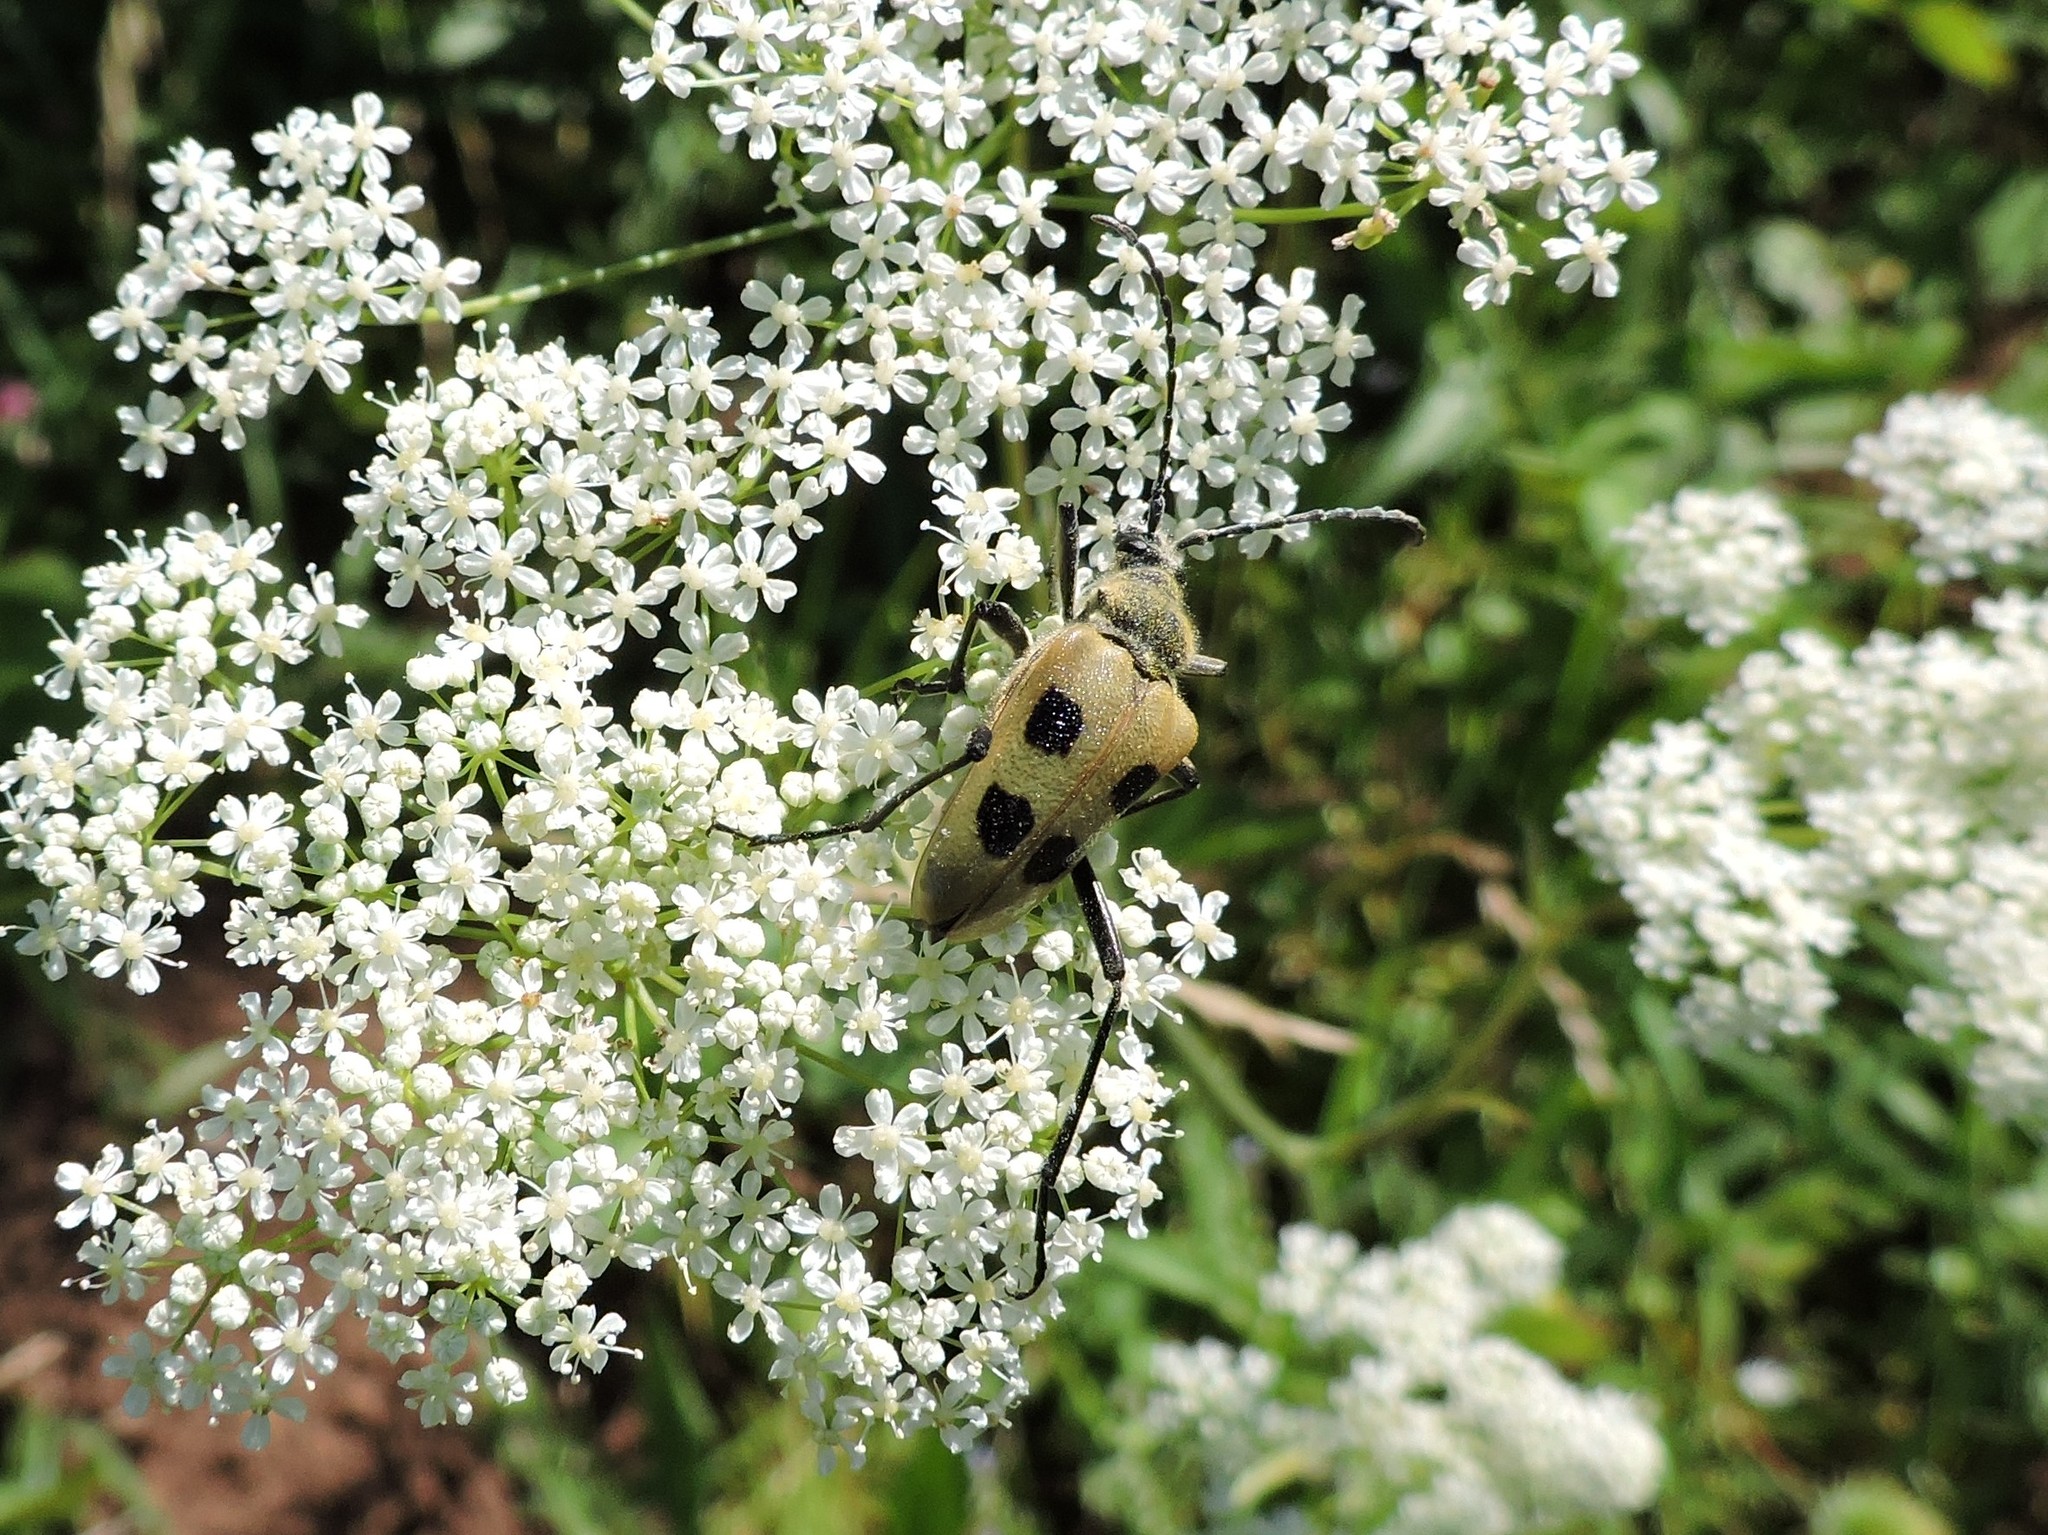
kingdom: Animalia
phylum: Arthropoda
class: Insecta
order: Coleoptera
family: Cerambycidae
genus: Pachyta
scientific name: Pachyta quadrimaculata
